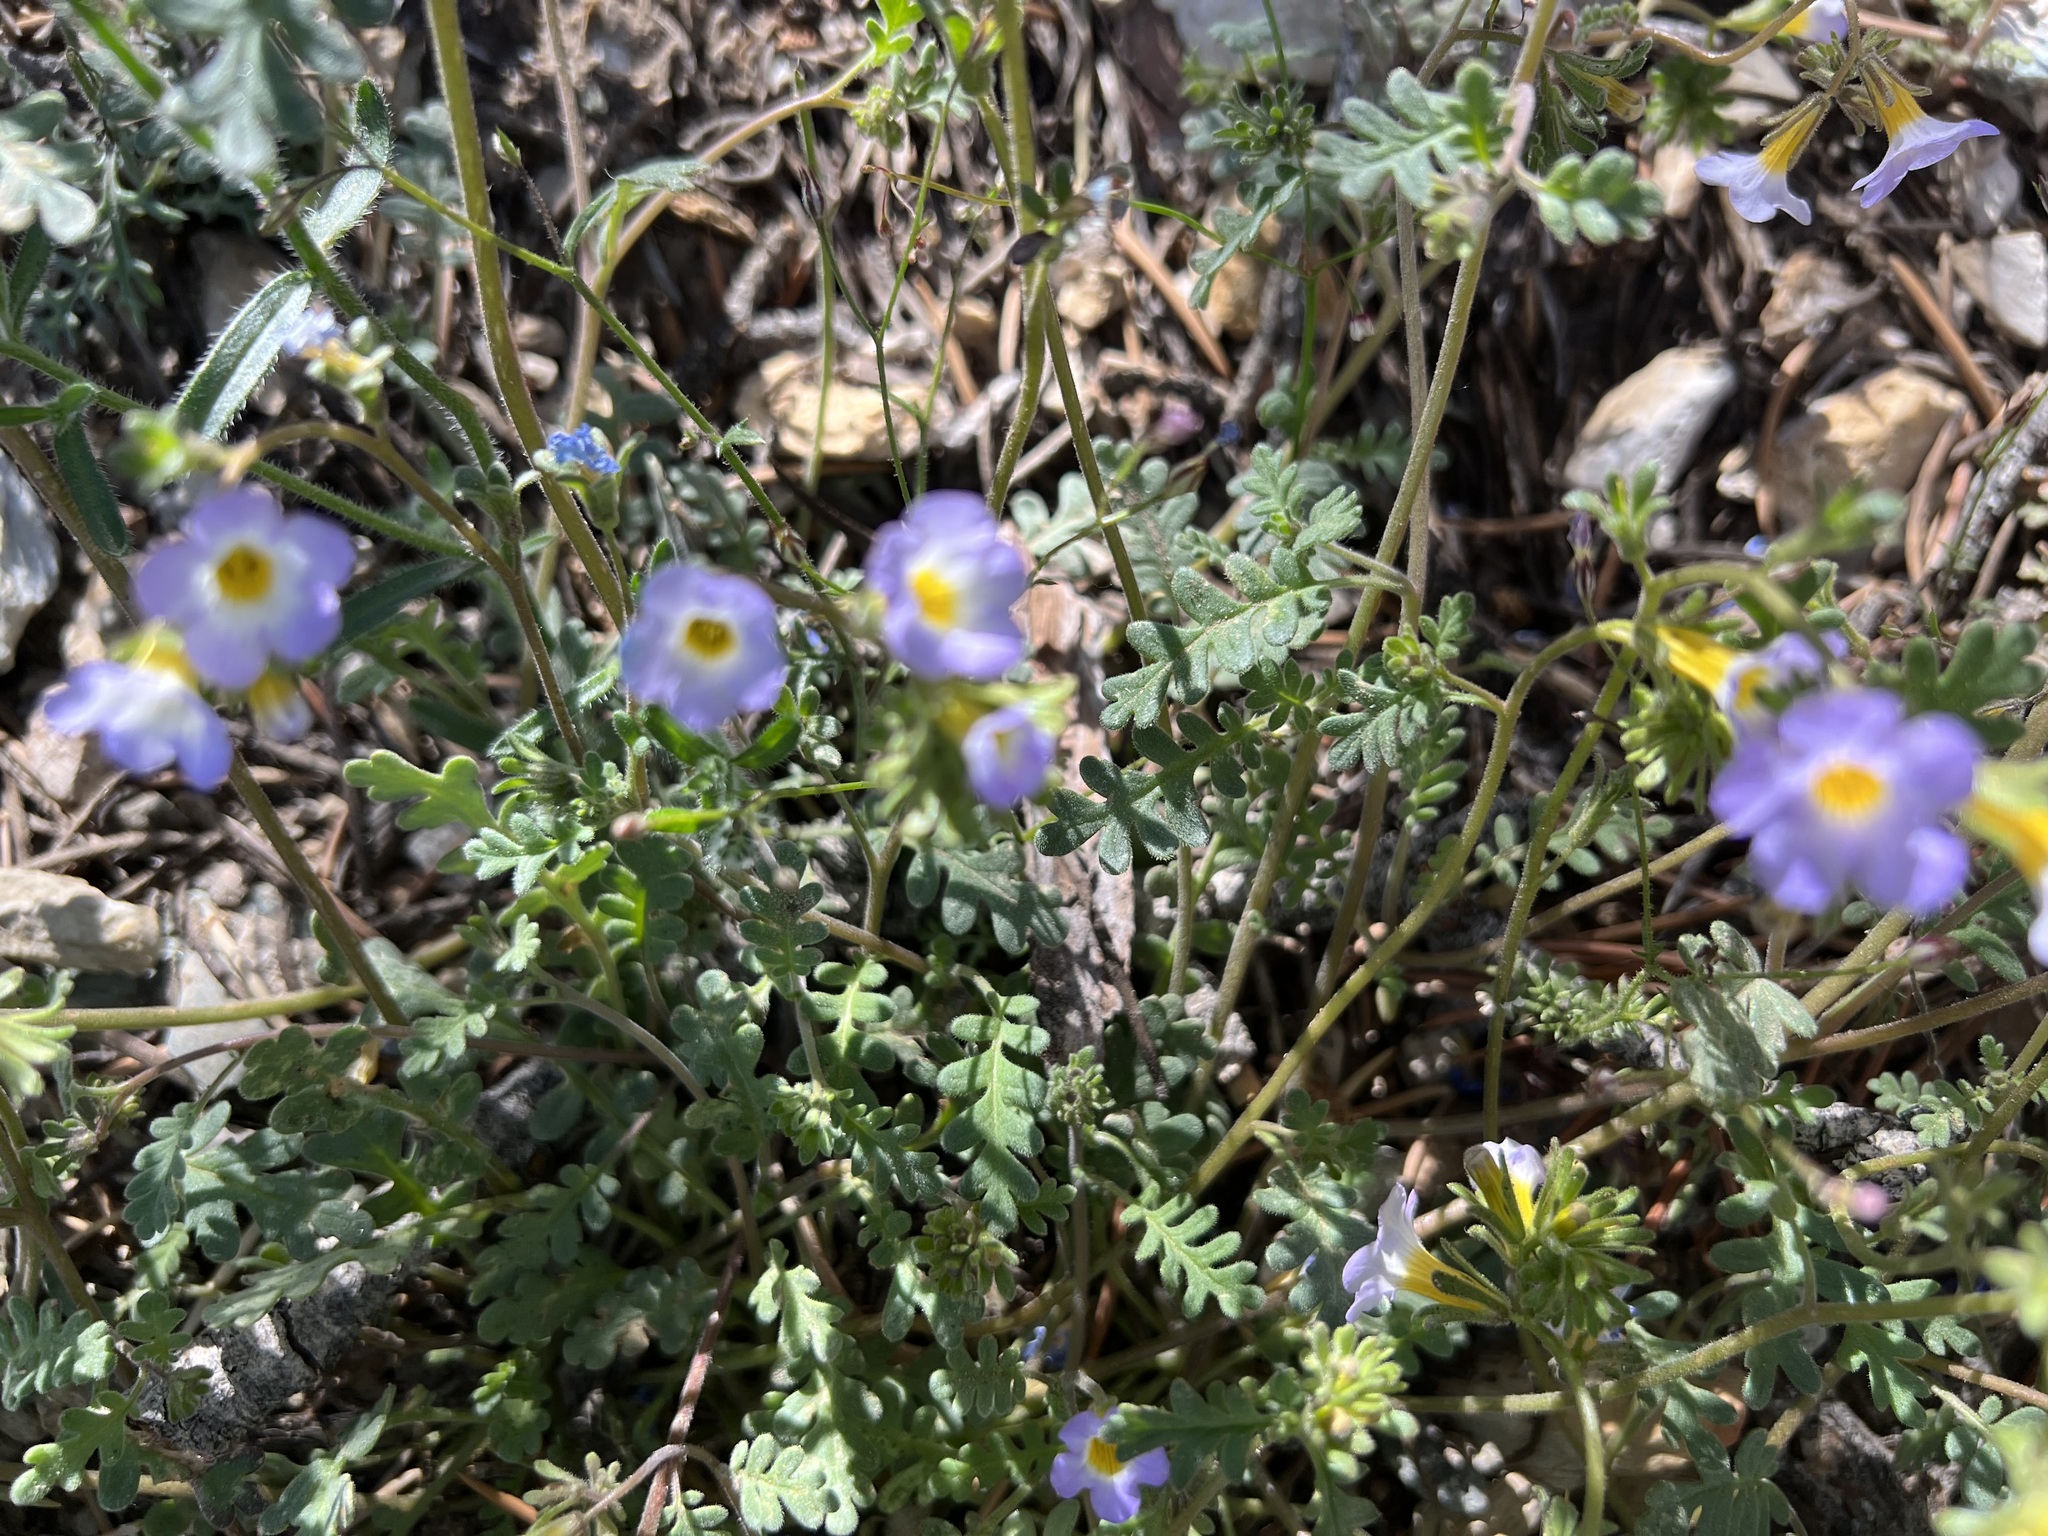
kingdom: Plantae
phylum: Tracheophyta
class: Magnoliopsida
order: Boraginales
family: Hydrophyllaceae
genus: Phacelia
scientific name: Phacelia fremontii
